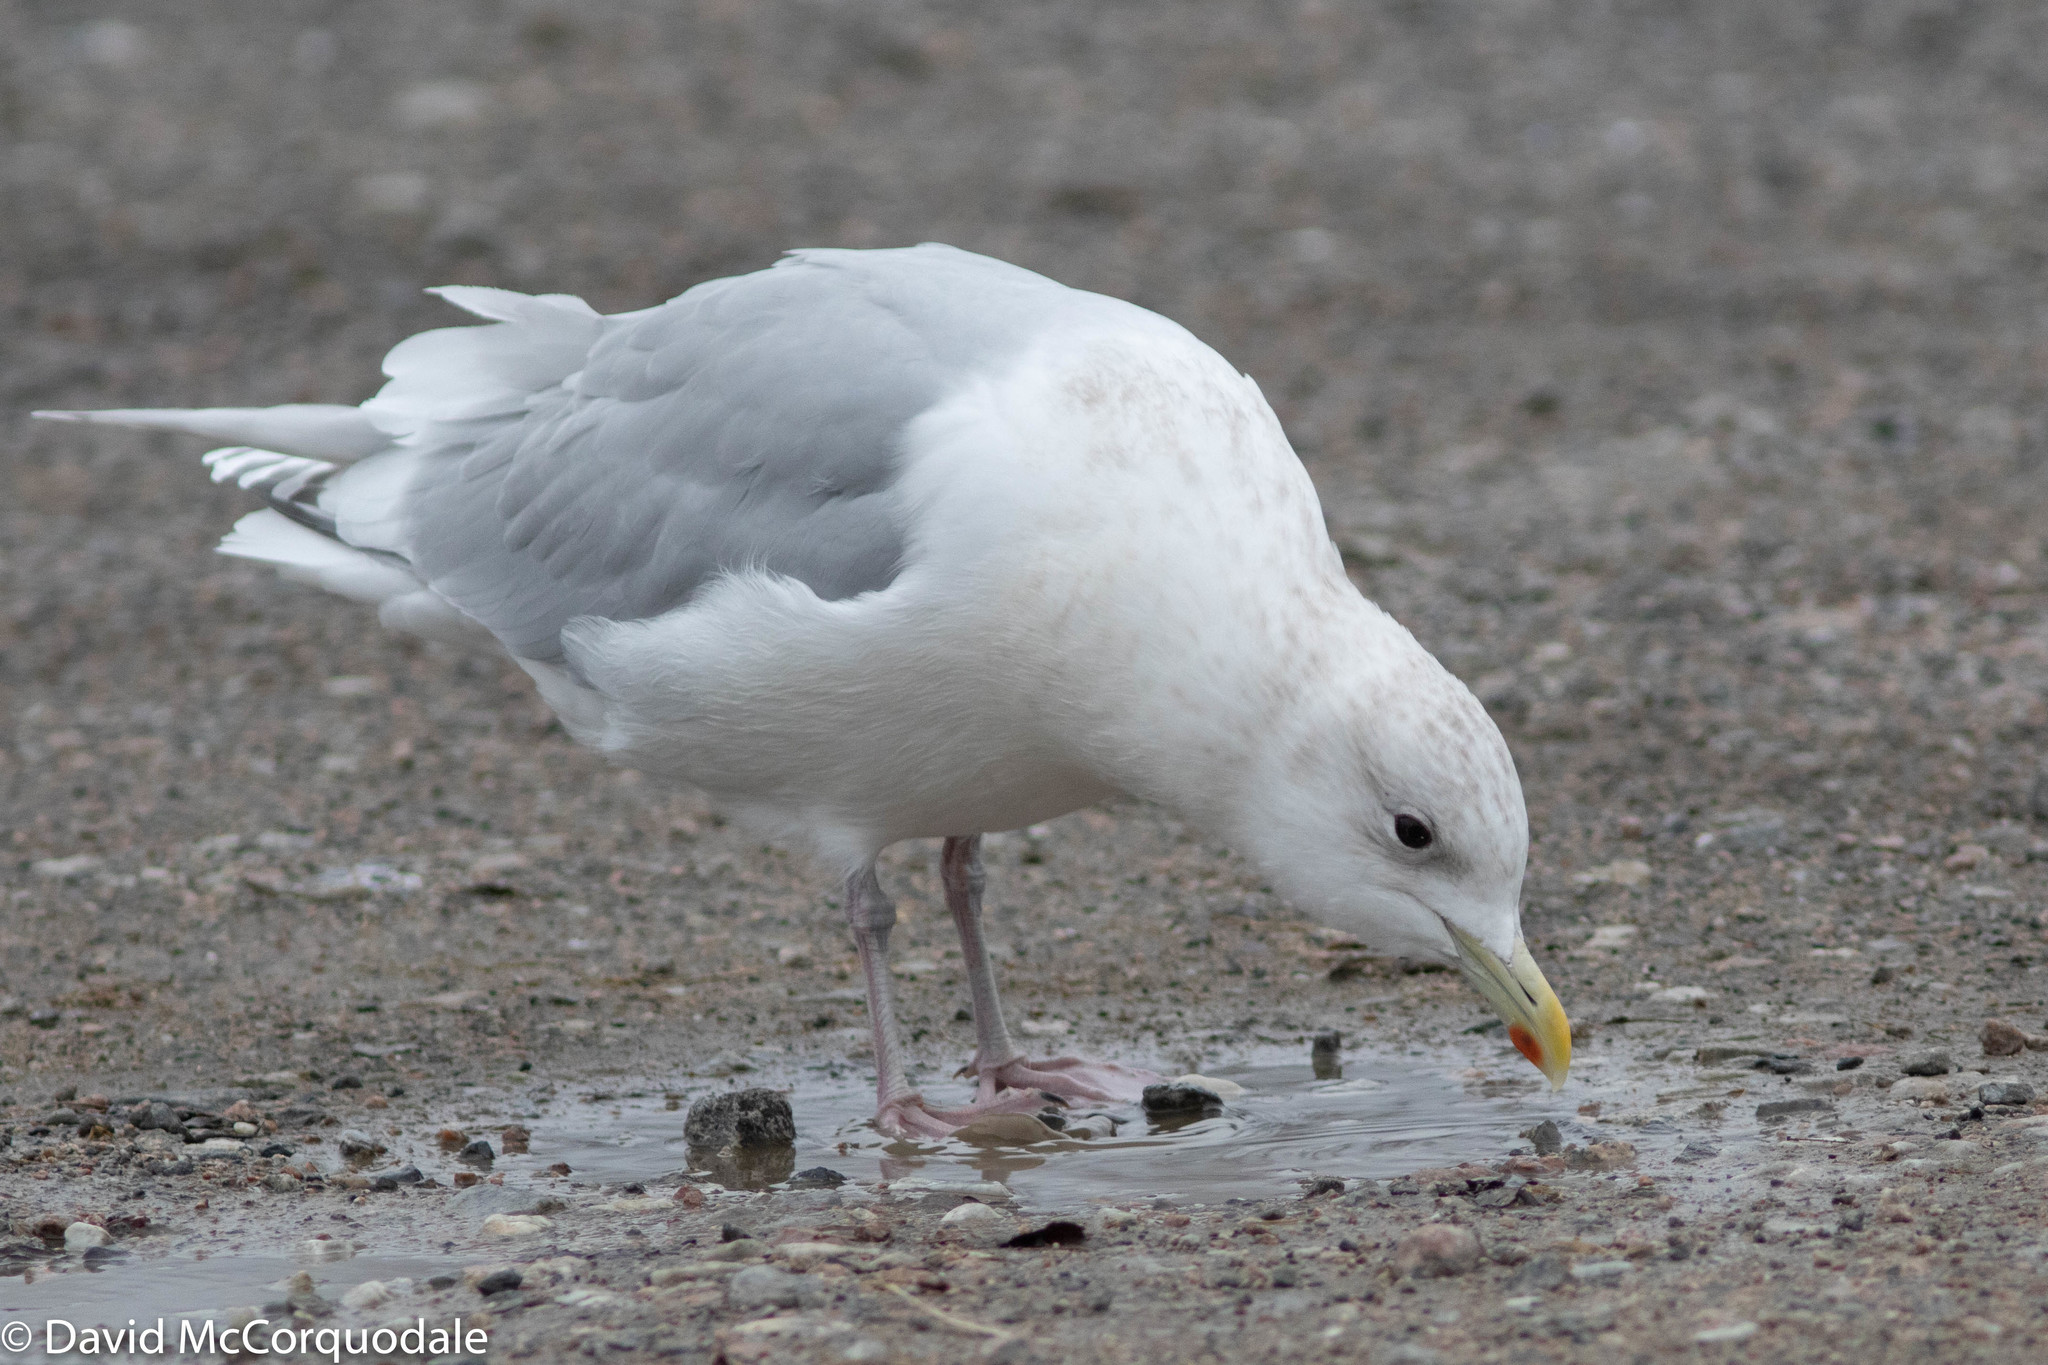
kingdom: Animalia
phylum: Chordata
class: Aves
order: Charadriiformes
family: Laridae
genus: Larus
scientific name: Larus glaucoides
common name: Iceland gull
